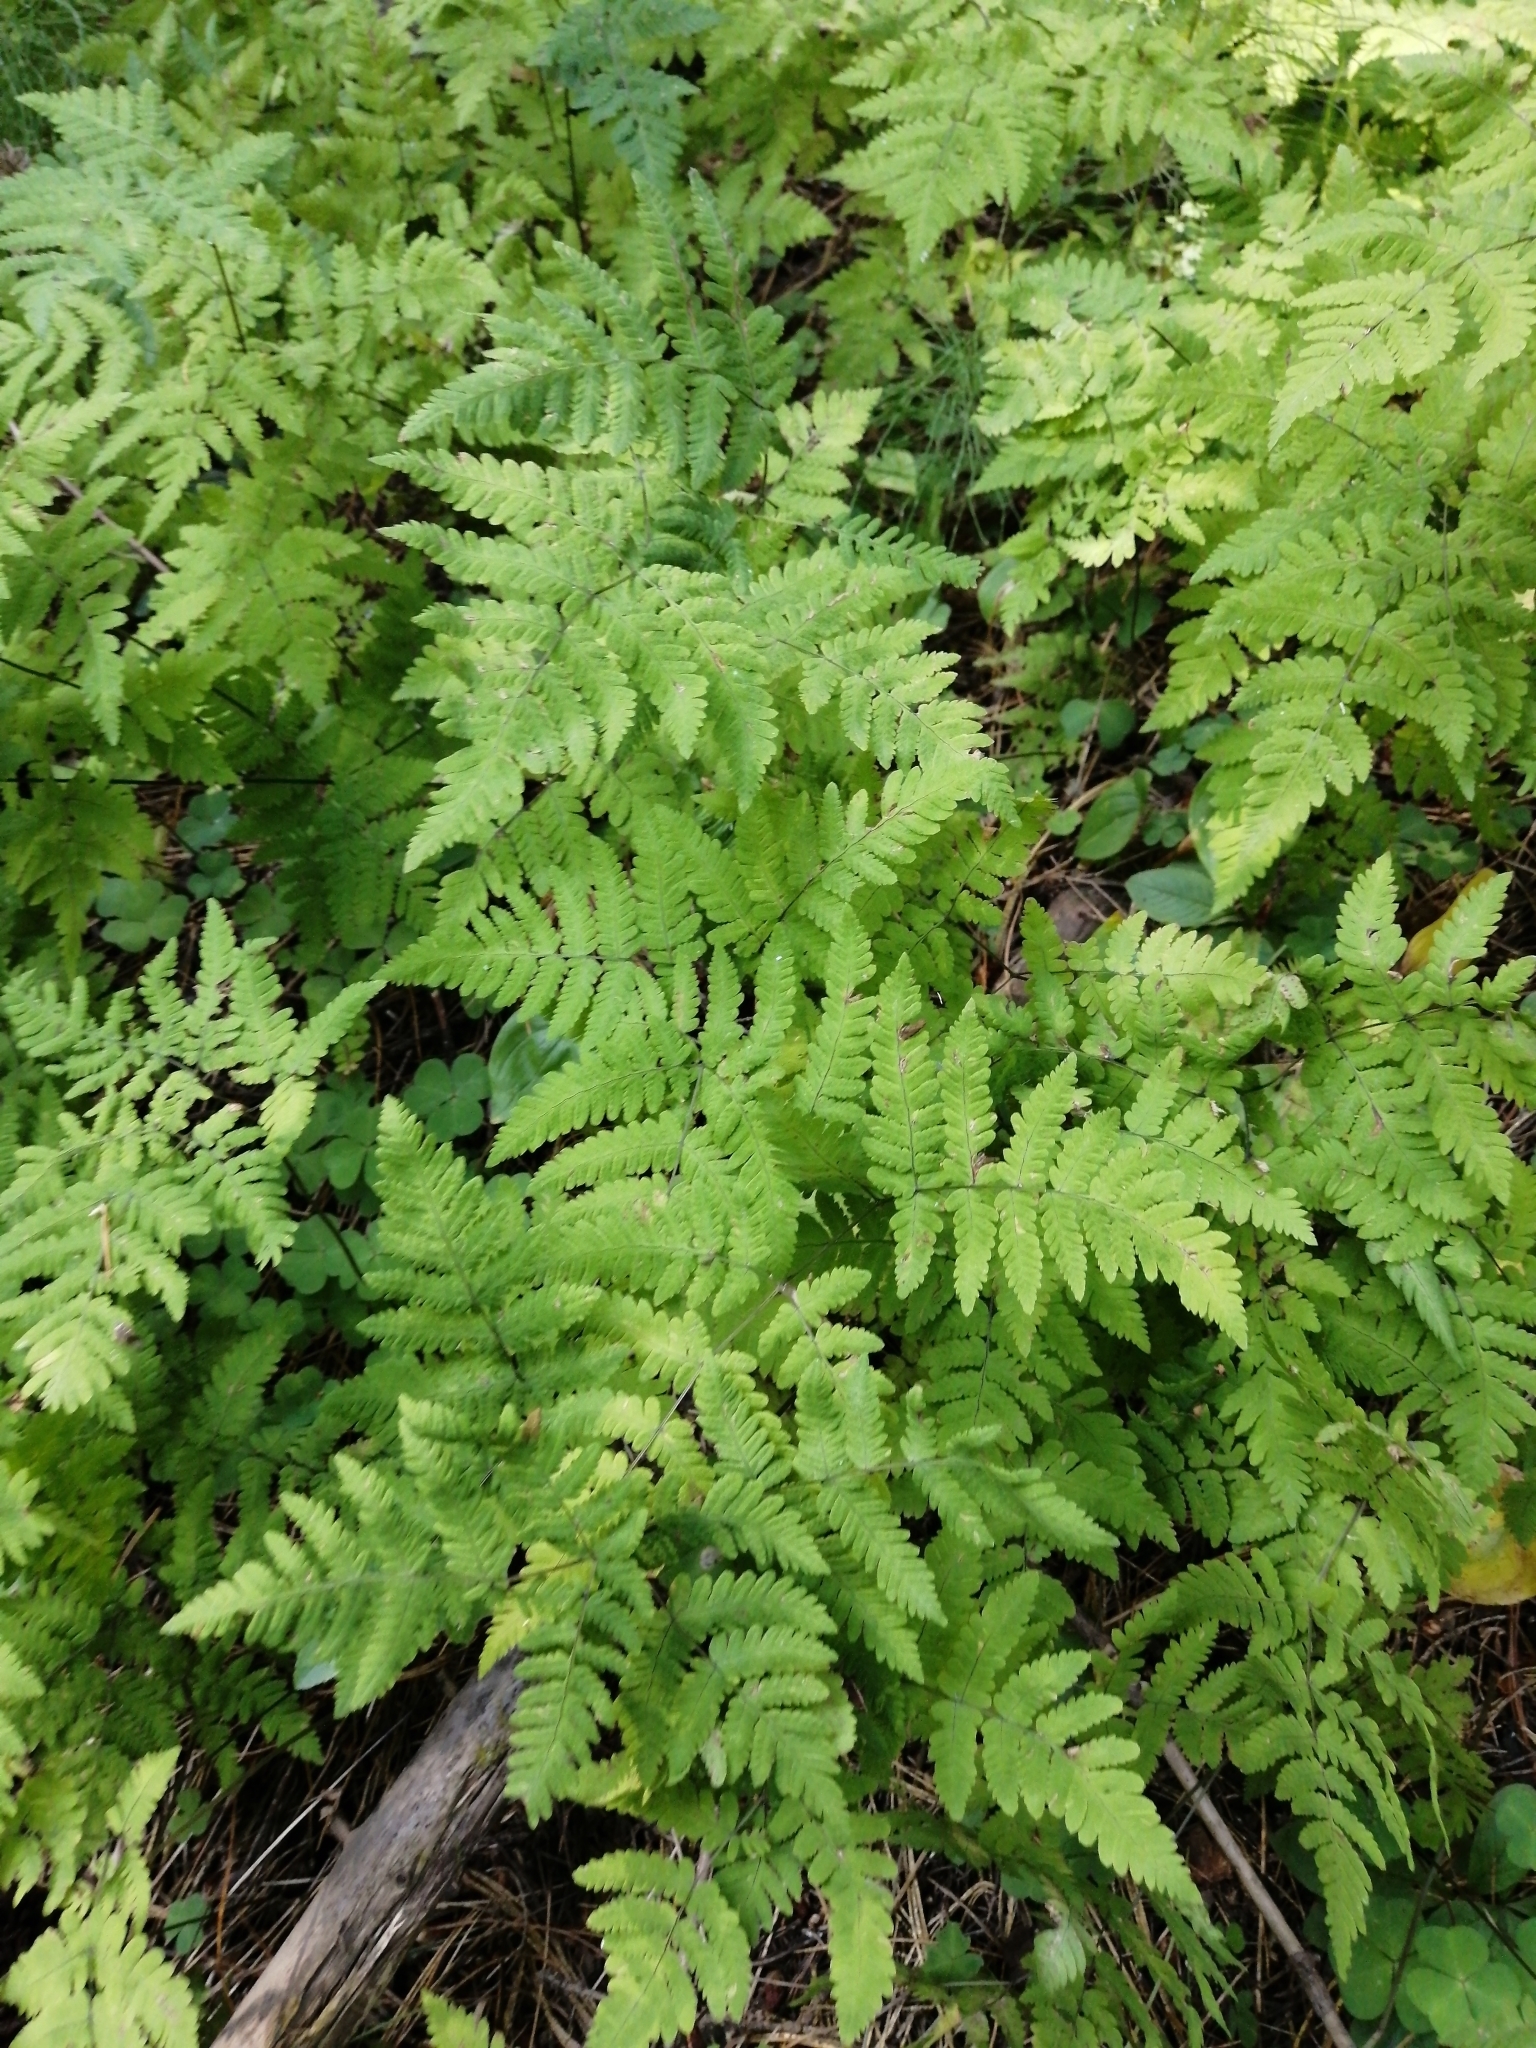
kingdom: Plantae
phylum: Tracheophyta
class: Polypodiopsida
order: Polypodiales
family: Cystopteridaceae
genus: Gymnocarpium
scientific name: Gymnocarpium dryopteris
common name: Oak fern
